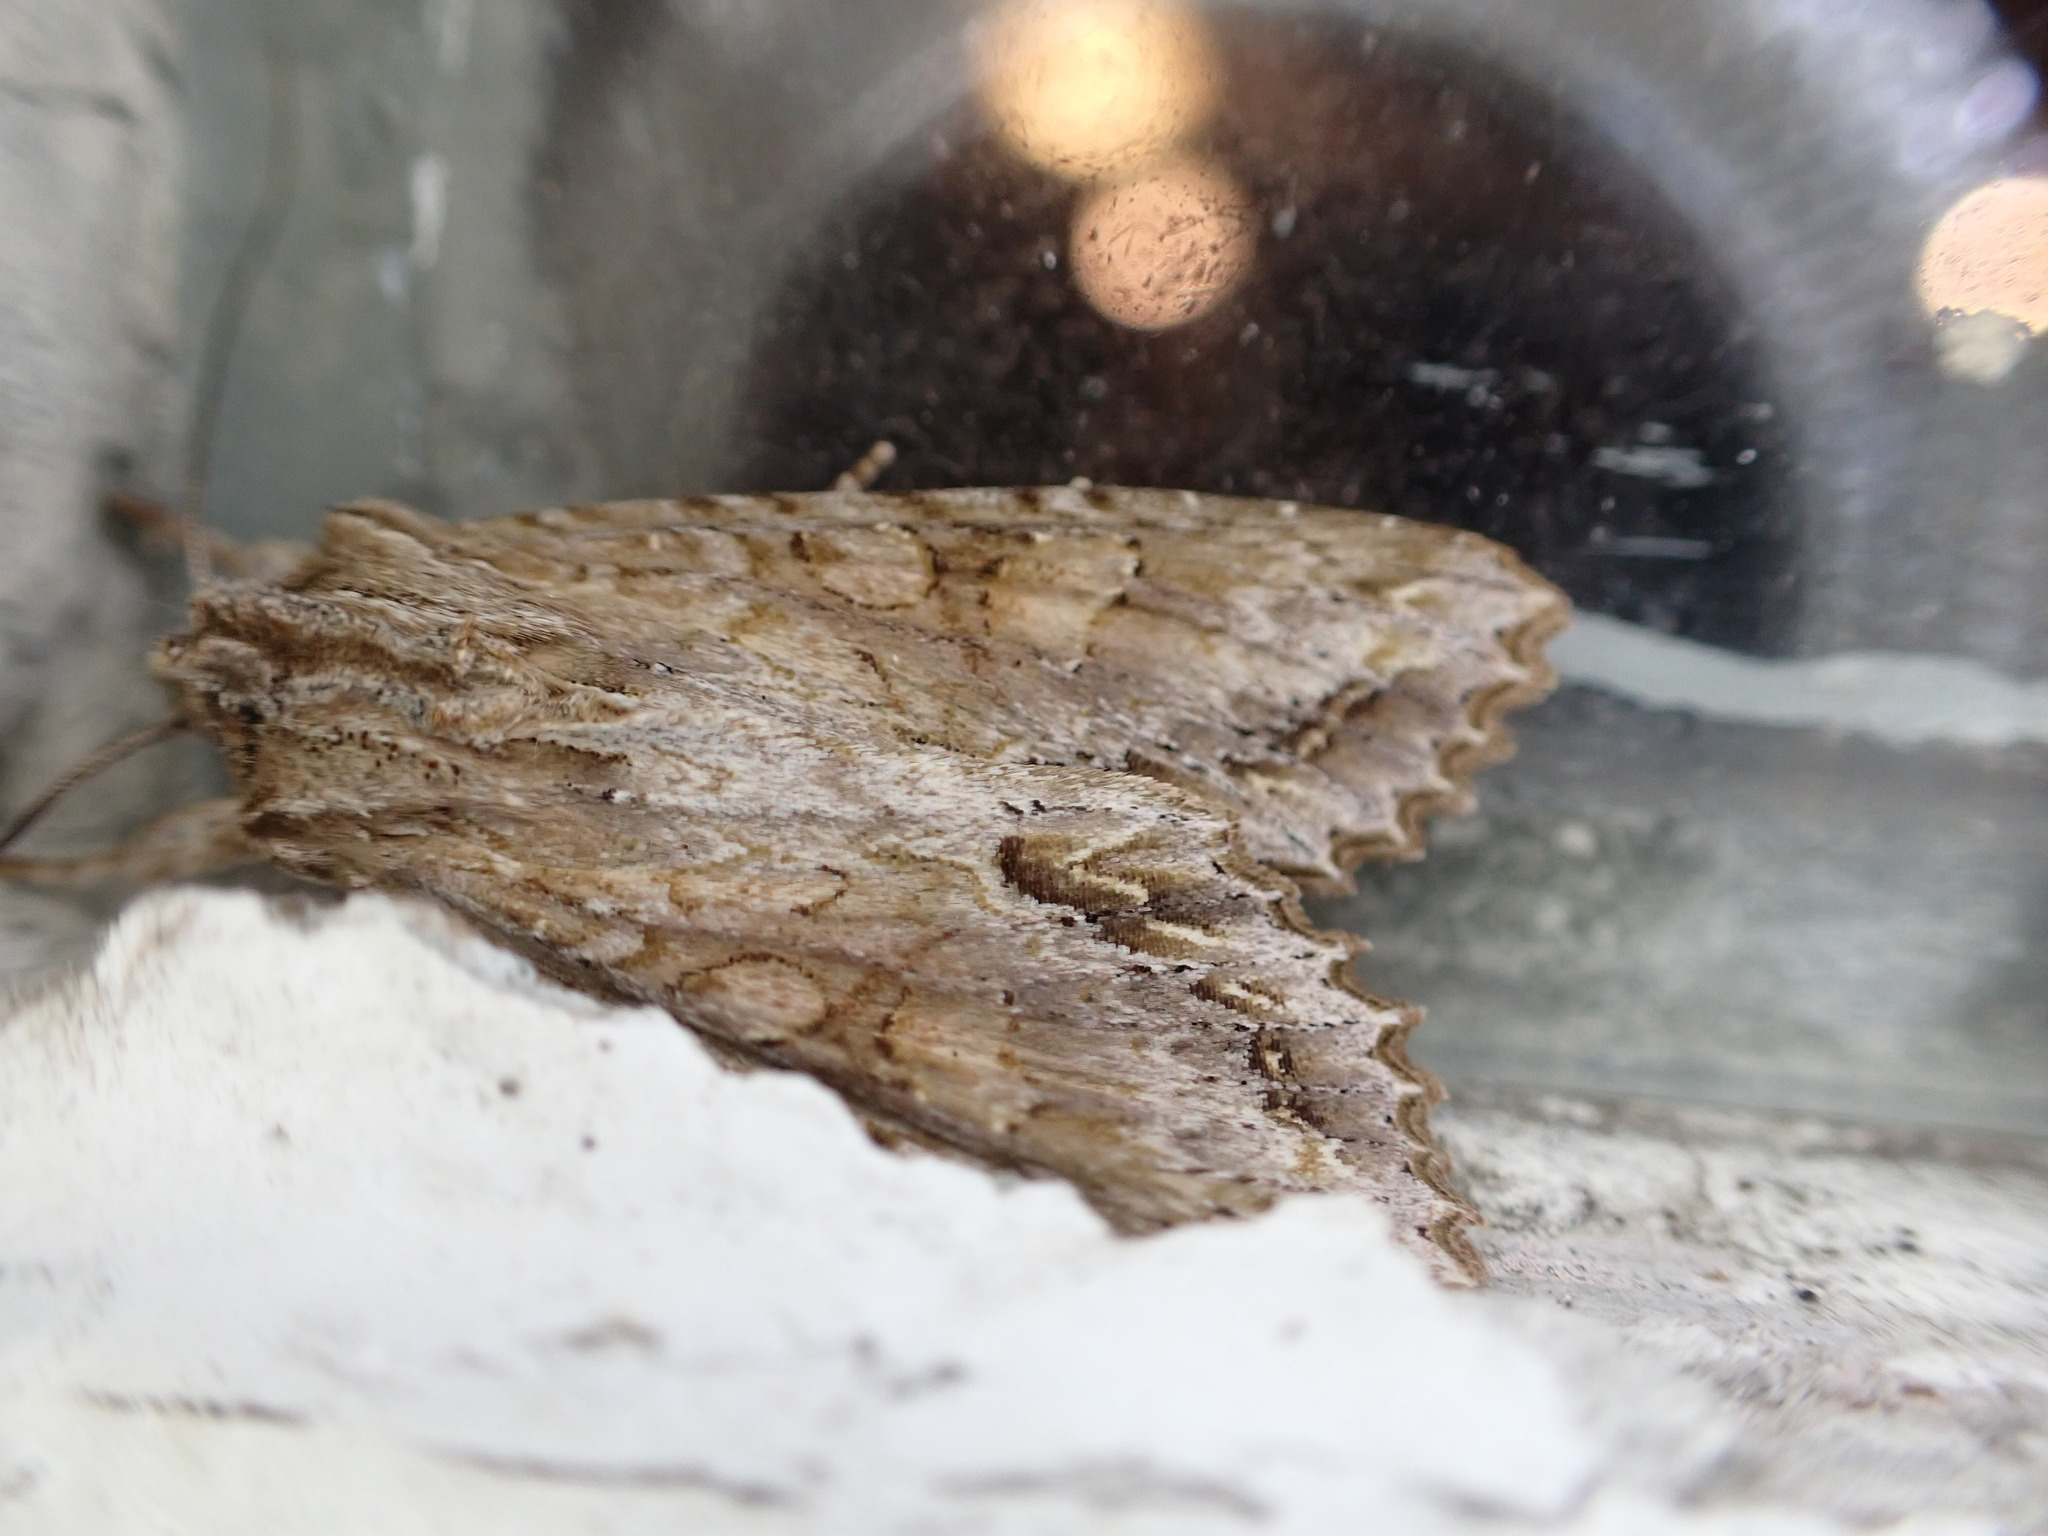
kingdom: Animalia
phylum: Arthropoda
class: Insecta
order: Lepidoptera
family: Noctuidae
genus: Ichneutica
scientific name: Ichneutica mollis
